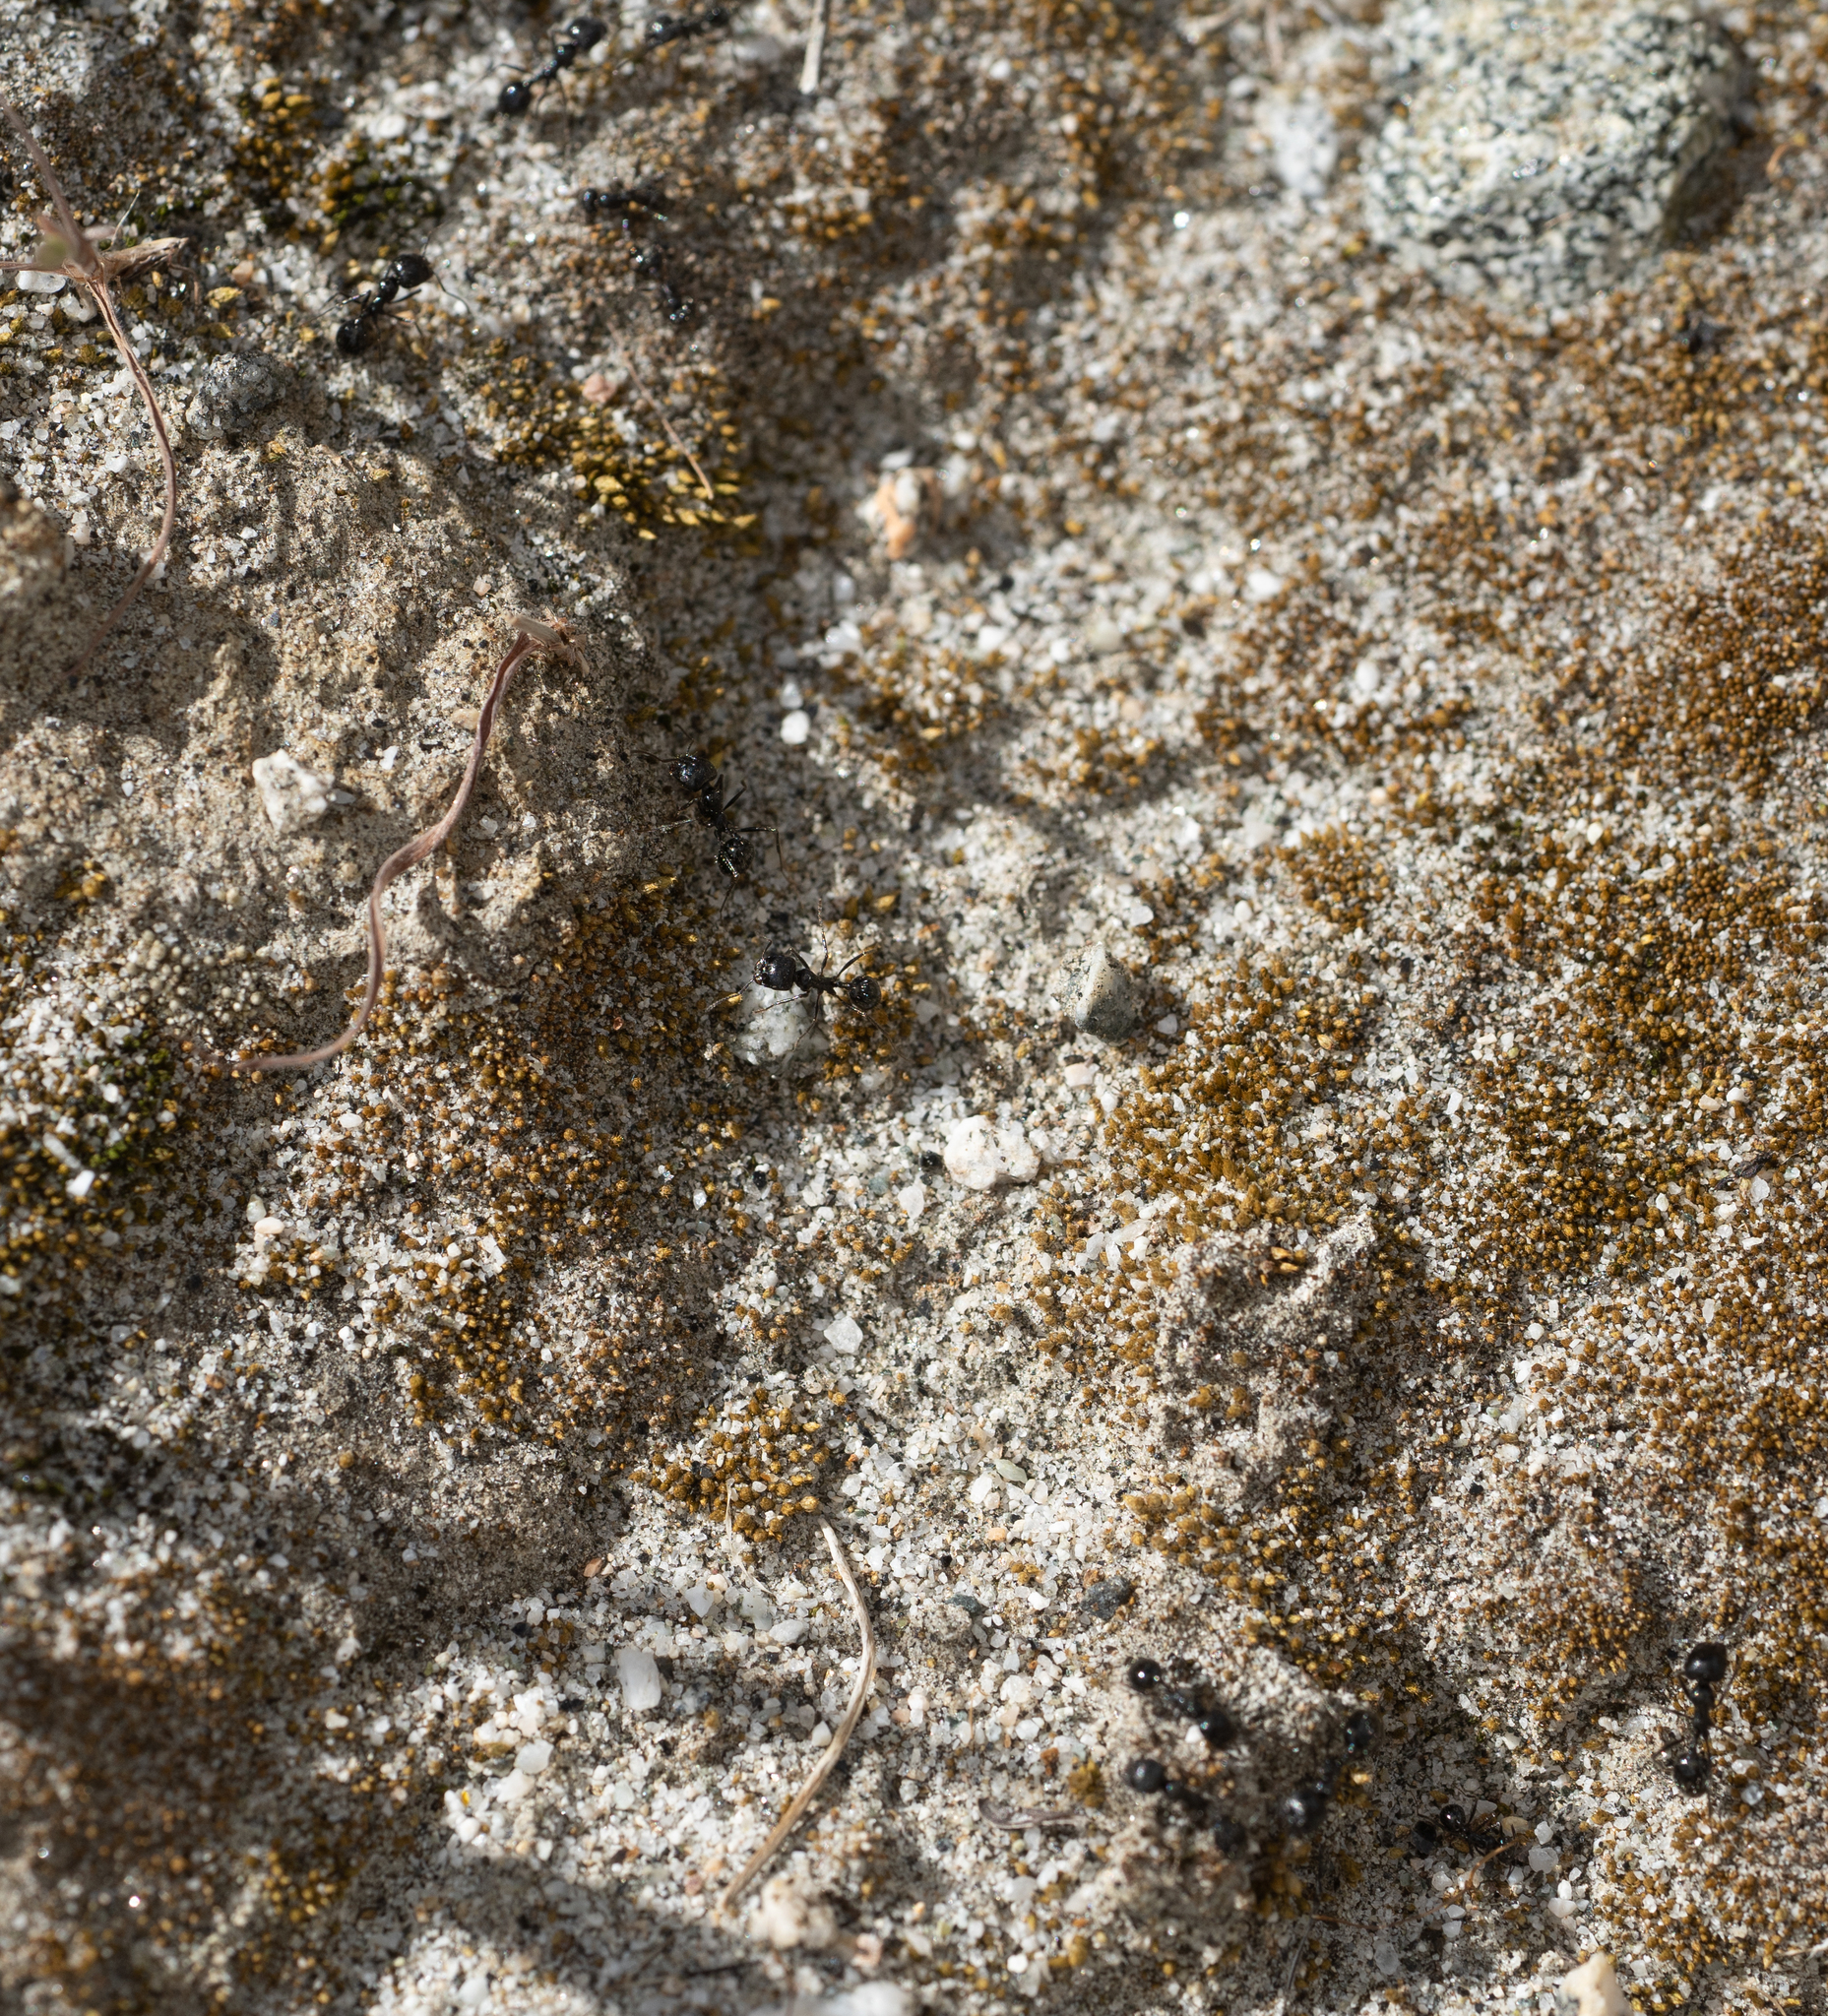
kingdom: Animalia
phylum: Arthropoda
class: Insecta
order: Hymenoptera
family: Formicidae
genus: Messor
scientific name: Messor pergandei
